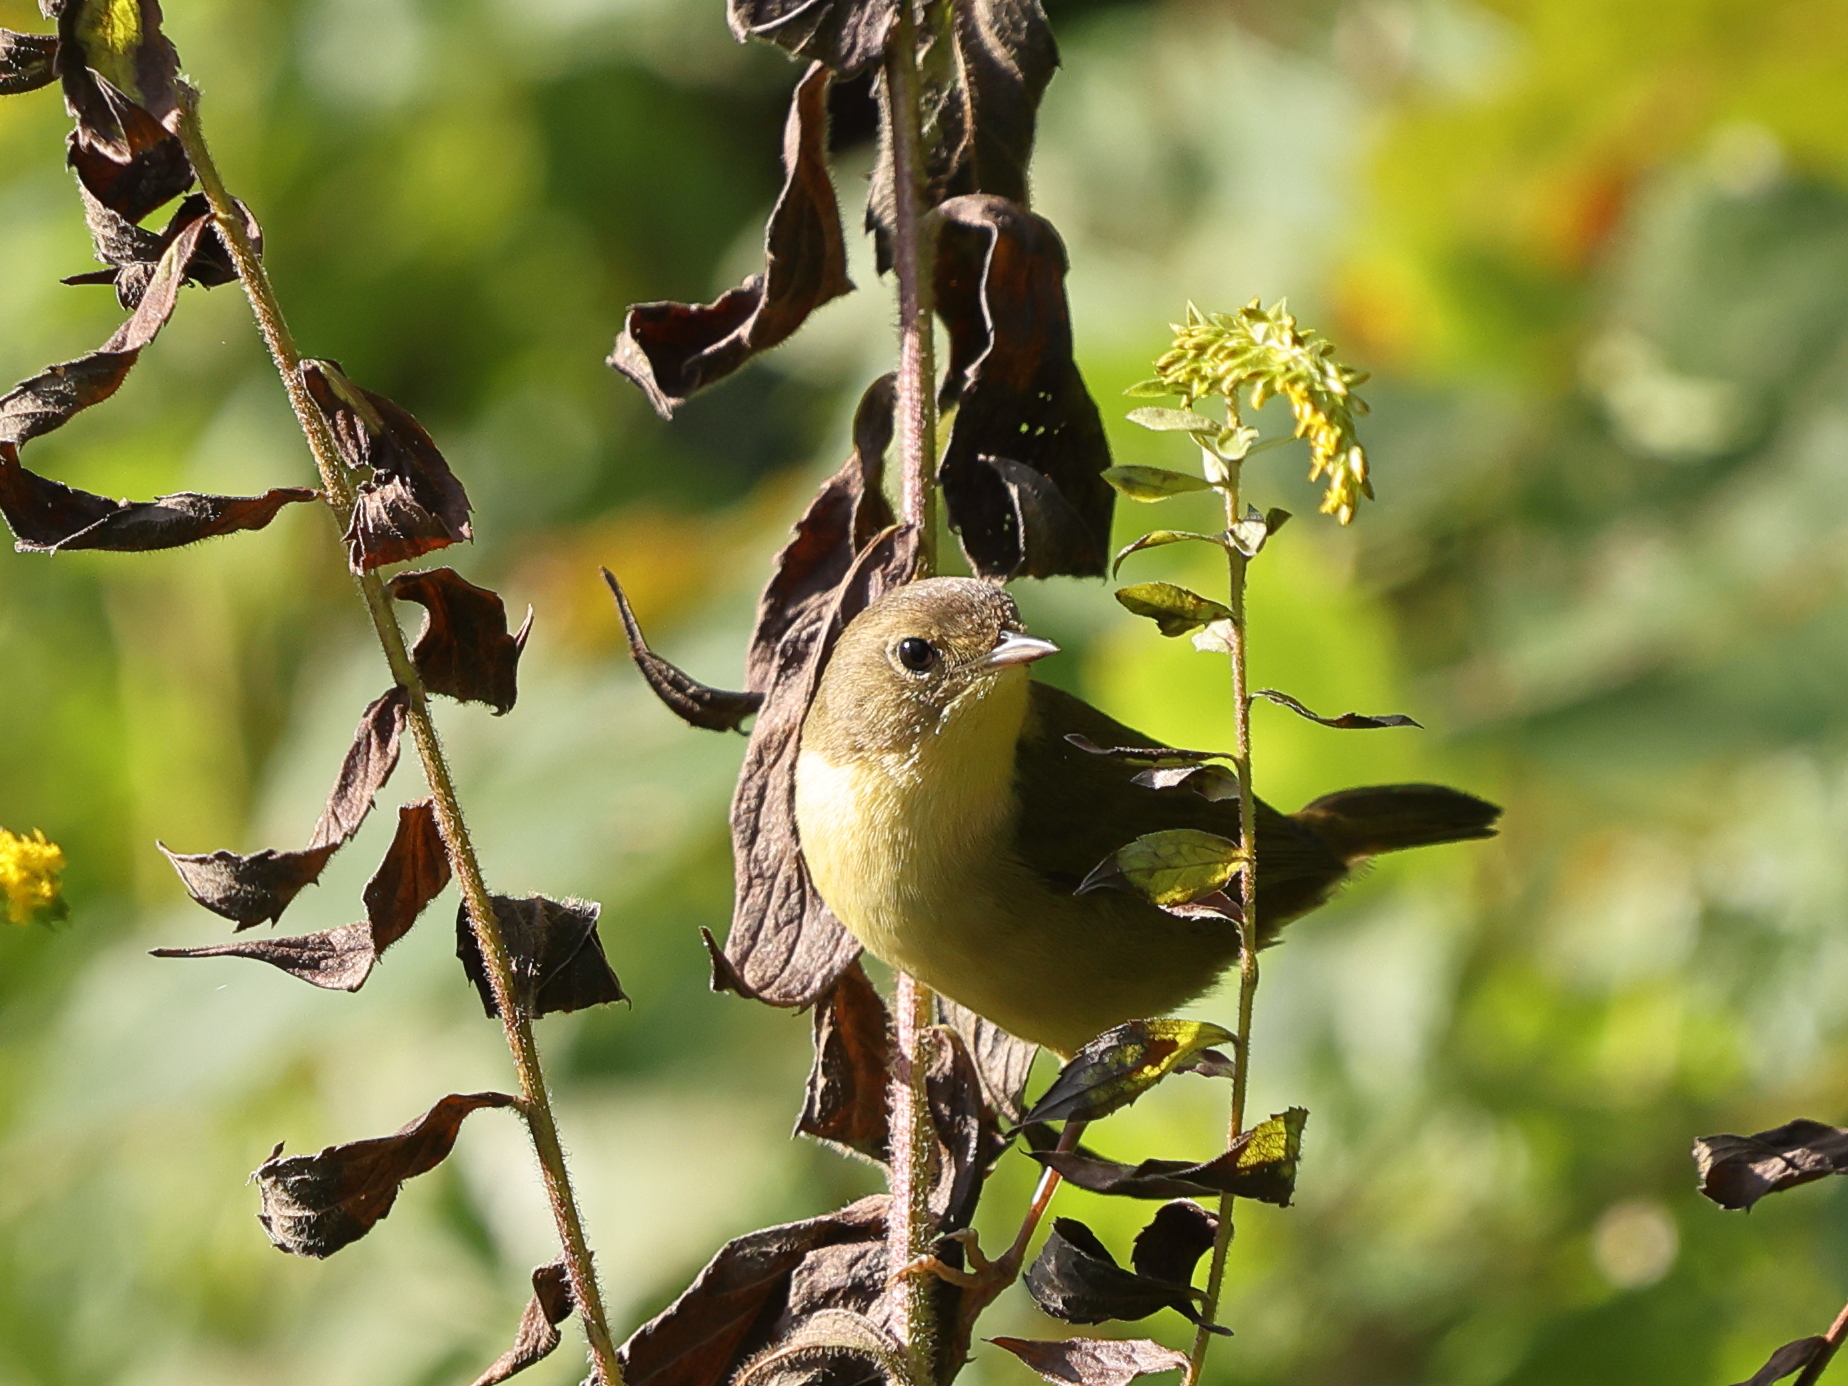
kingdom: Animalia
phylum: Chordata
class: Aves
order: Passeriformes
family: Parulidae
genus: Geothlypis
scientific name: Geothlypis trichas
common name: Common yellowthroat
